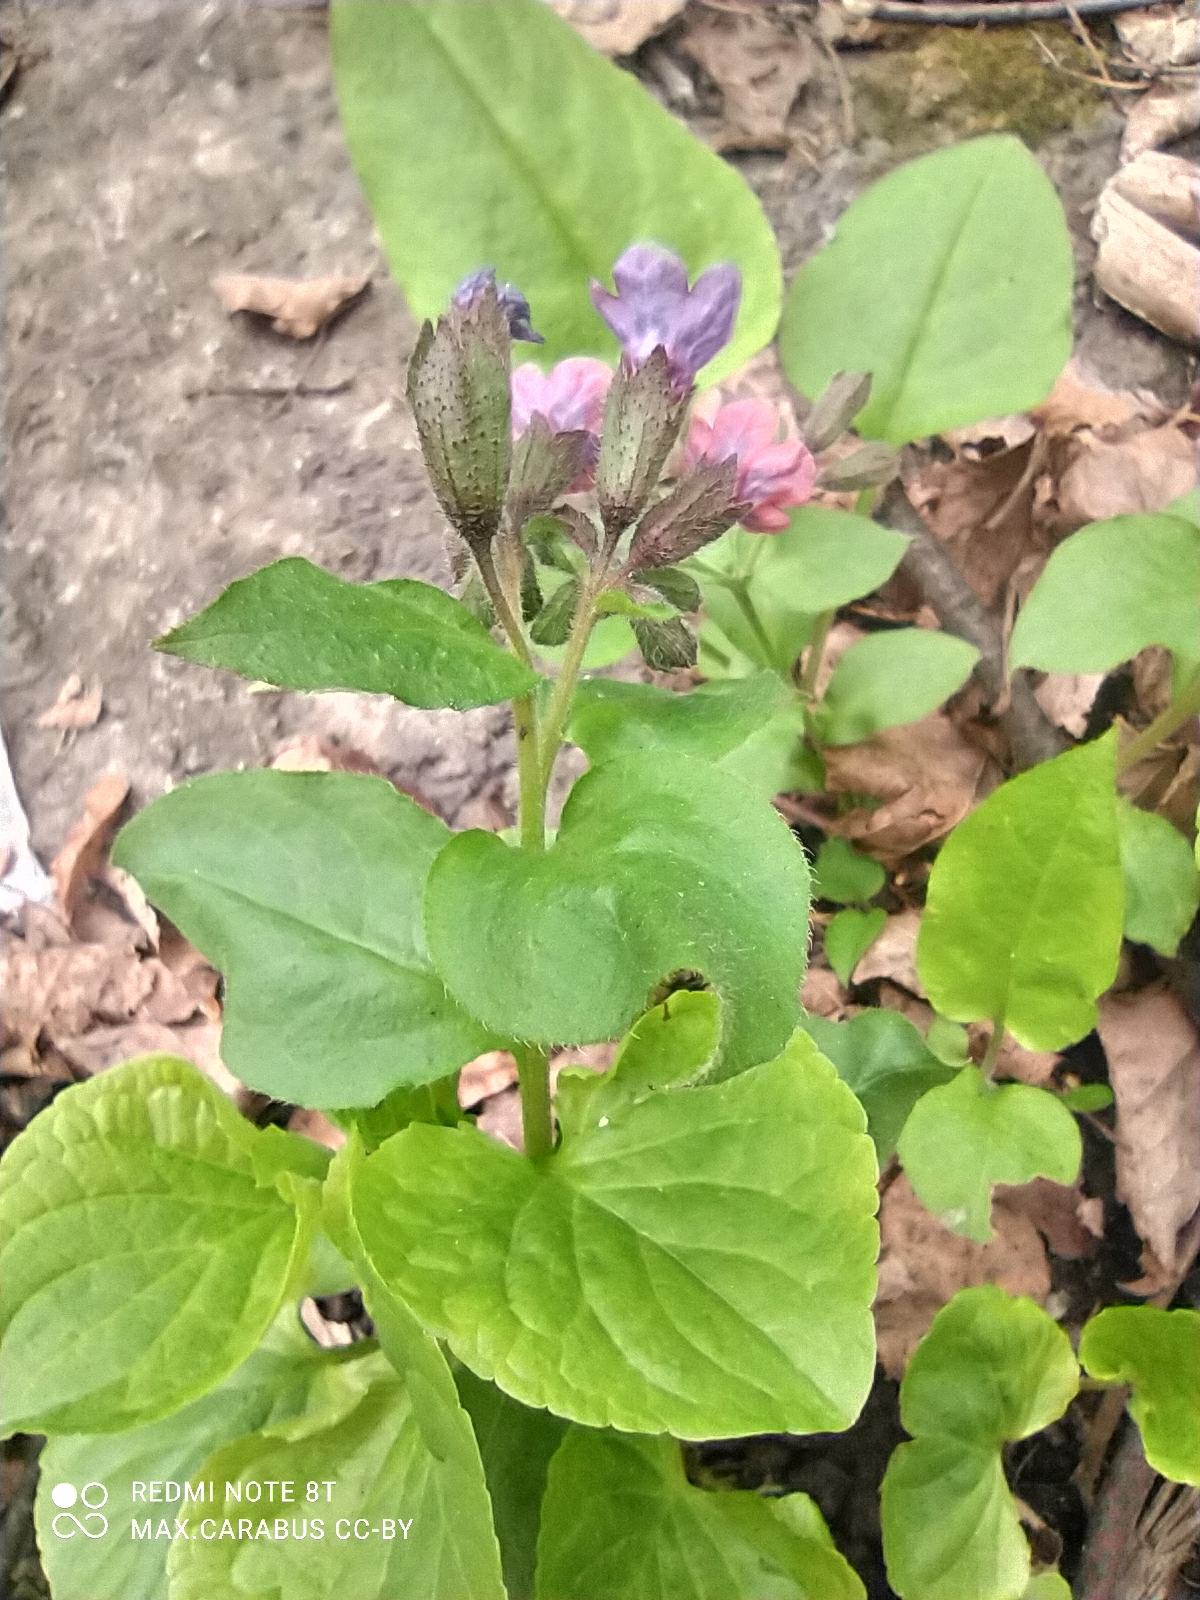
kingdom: Plantae
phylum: Tracheophyta
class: Magnoliopsida
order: Boraginales
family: Boraginaceae
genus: Pulmonaria
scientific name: Pulmonaria obscura
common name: Suffolk lungwort
